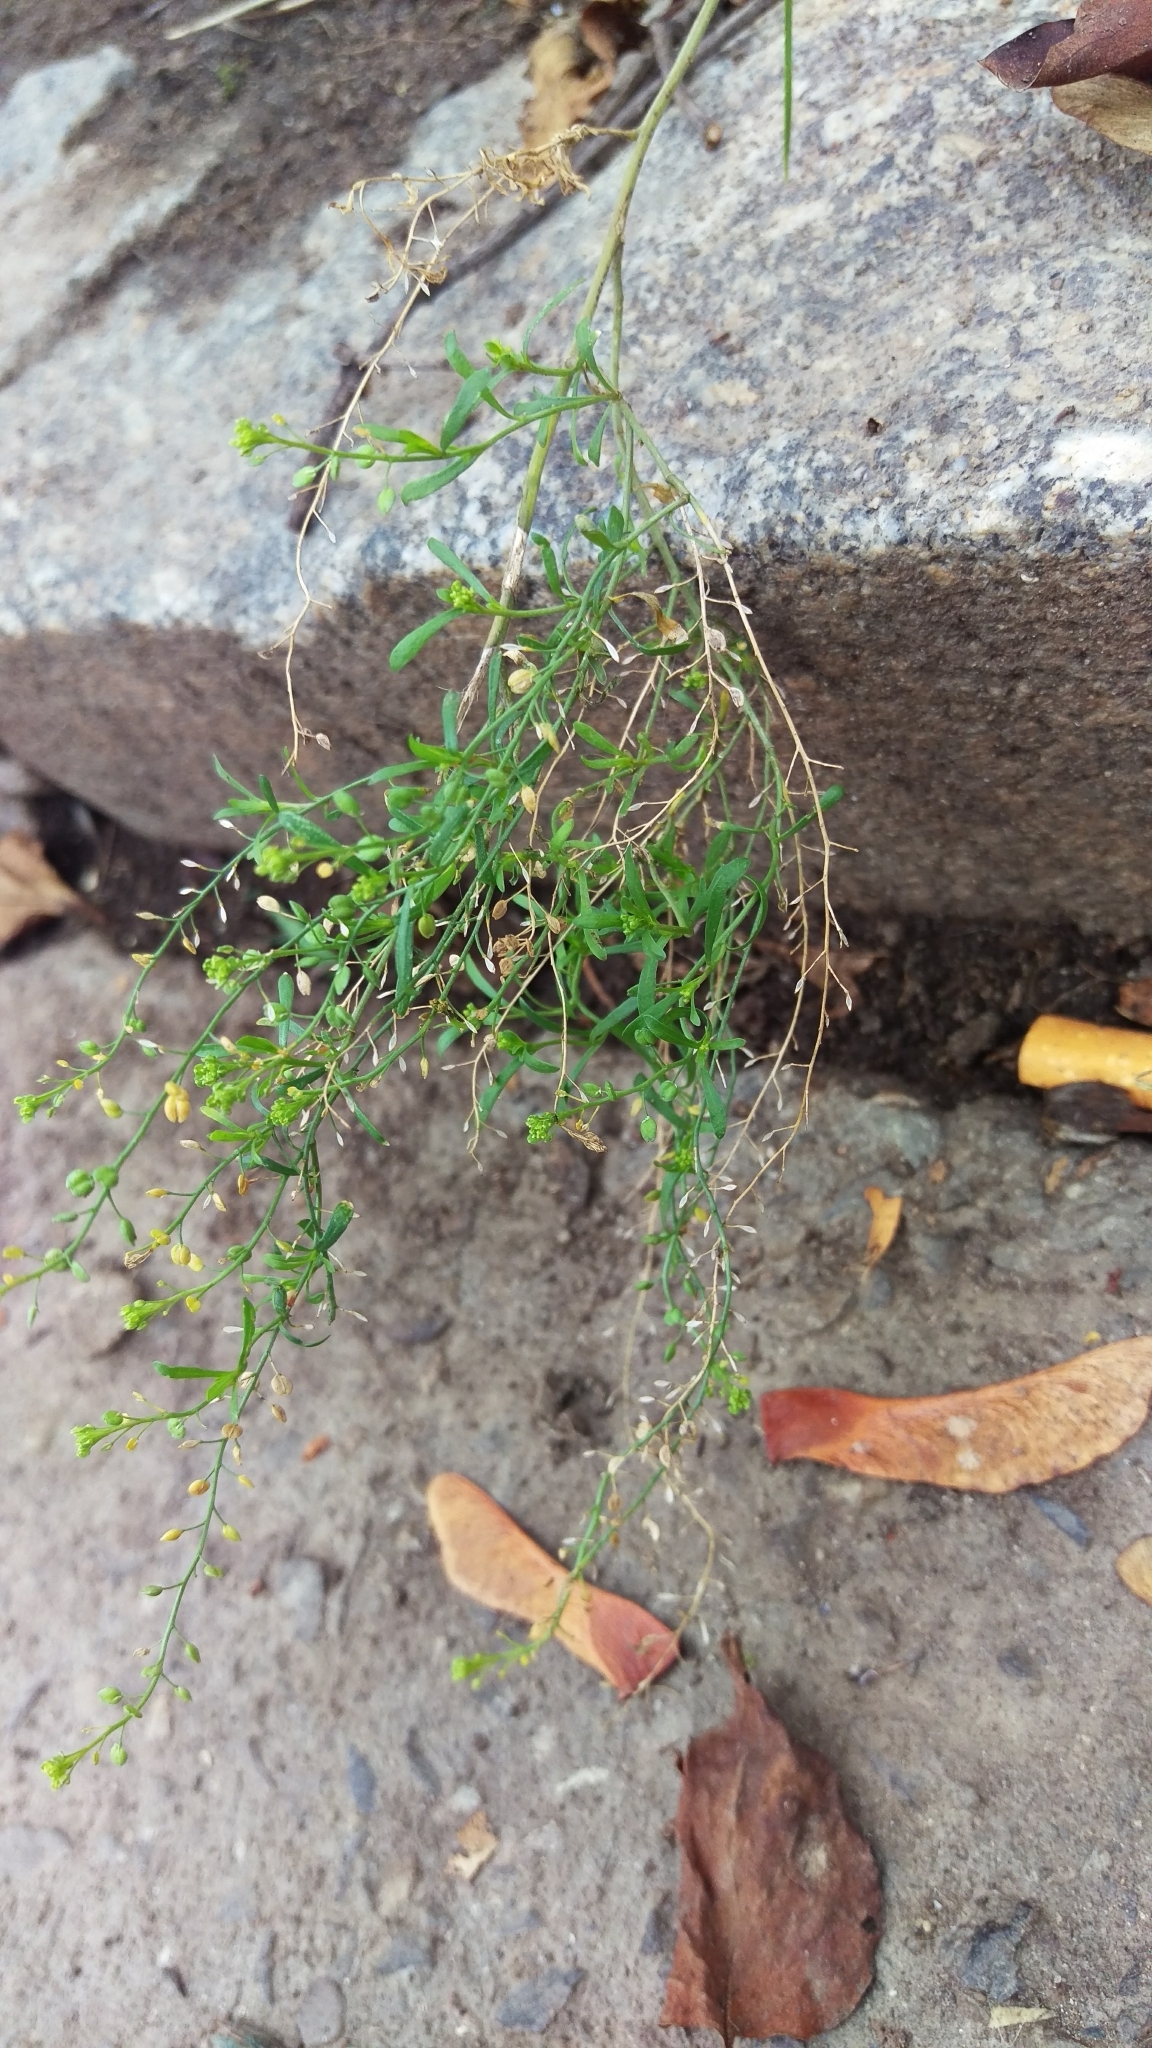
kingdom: Plantae
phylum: Tracheophyta
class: Magnoliopsida
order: Brassicales
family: Brassicaceae
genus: Lepidium
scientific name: Lepidium ruderale
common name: Narrow-leaved pepperwort
